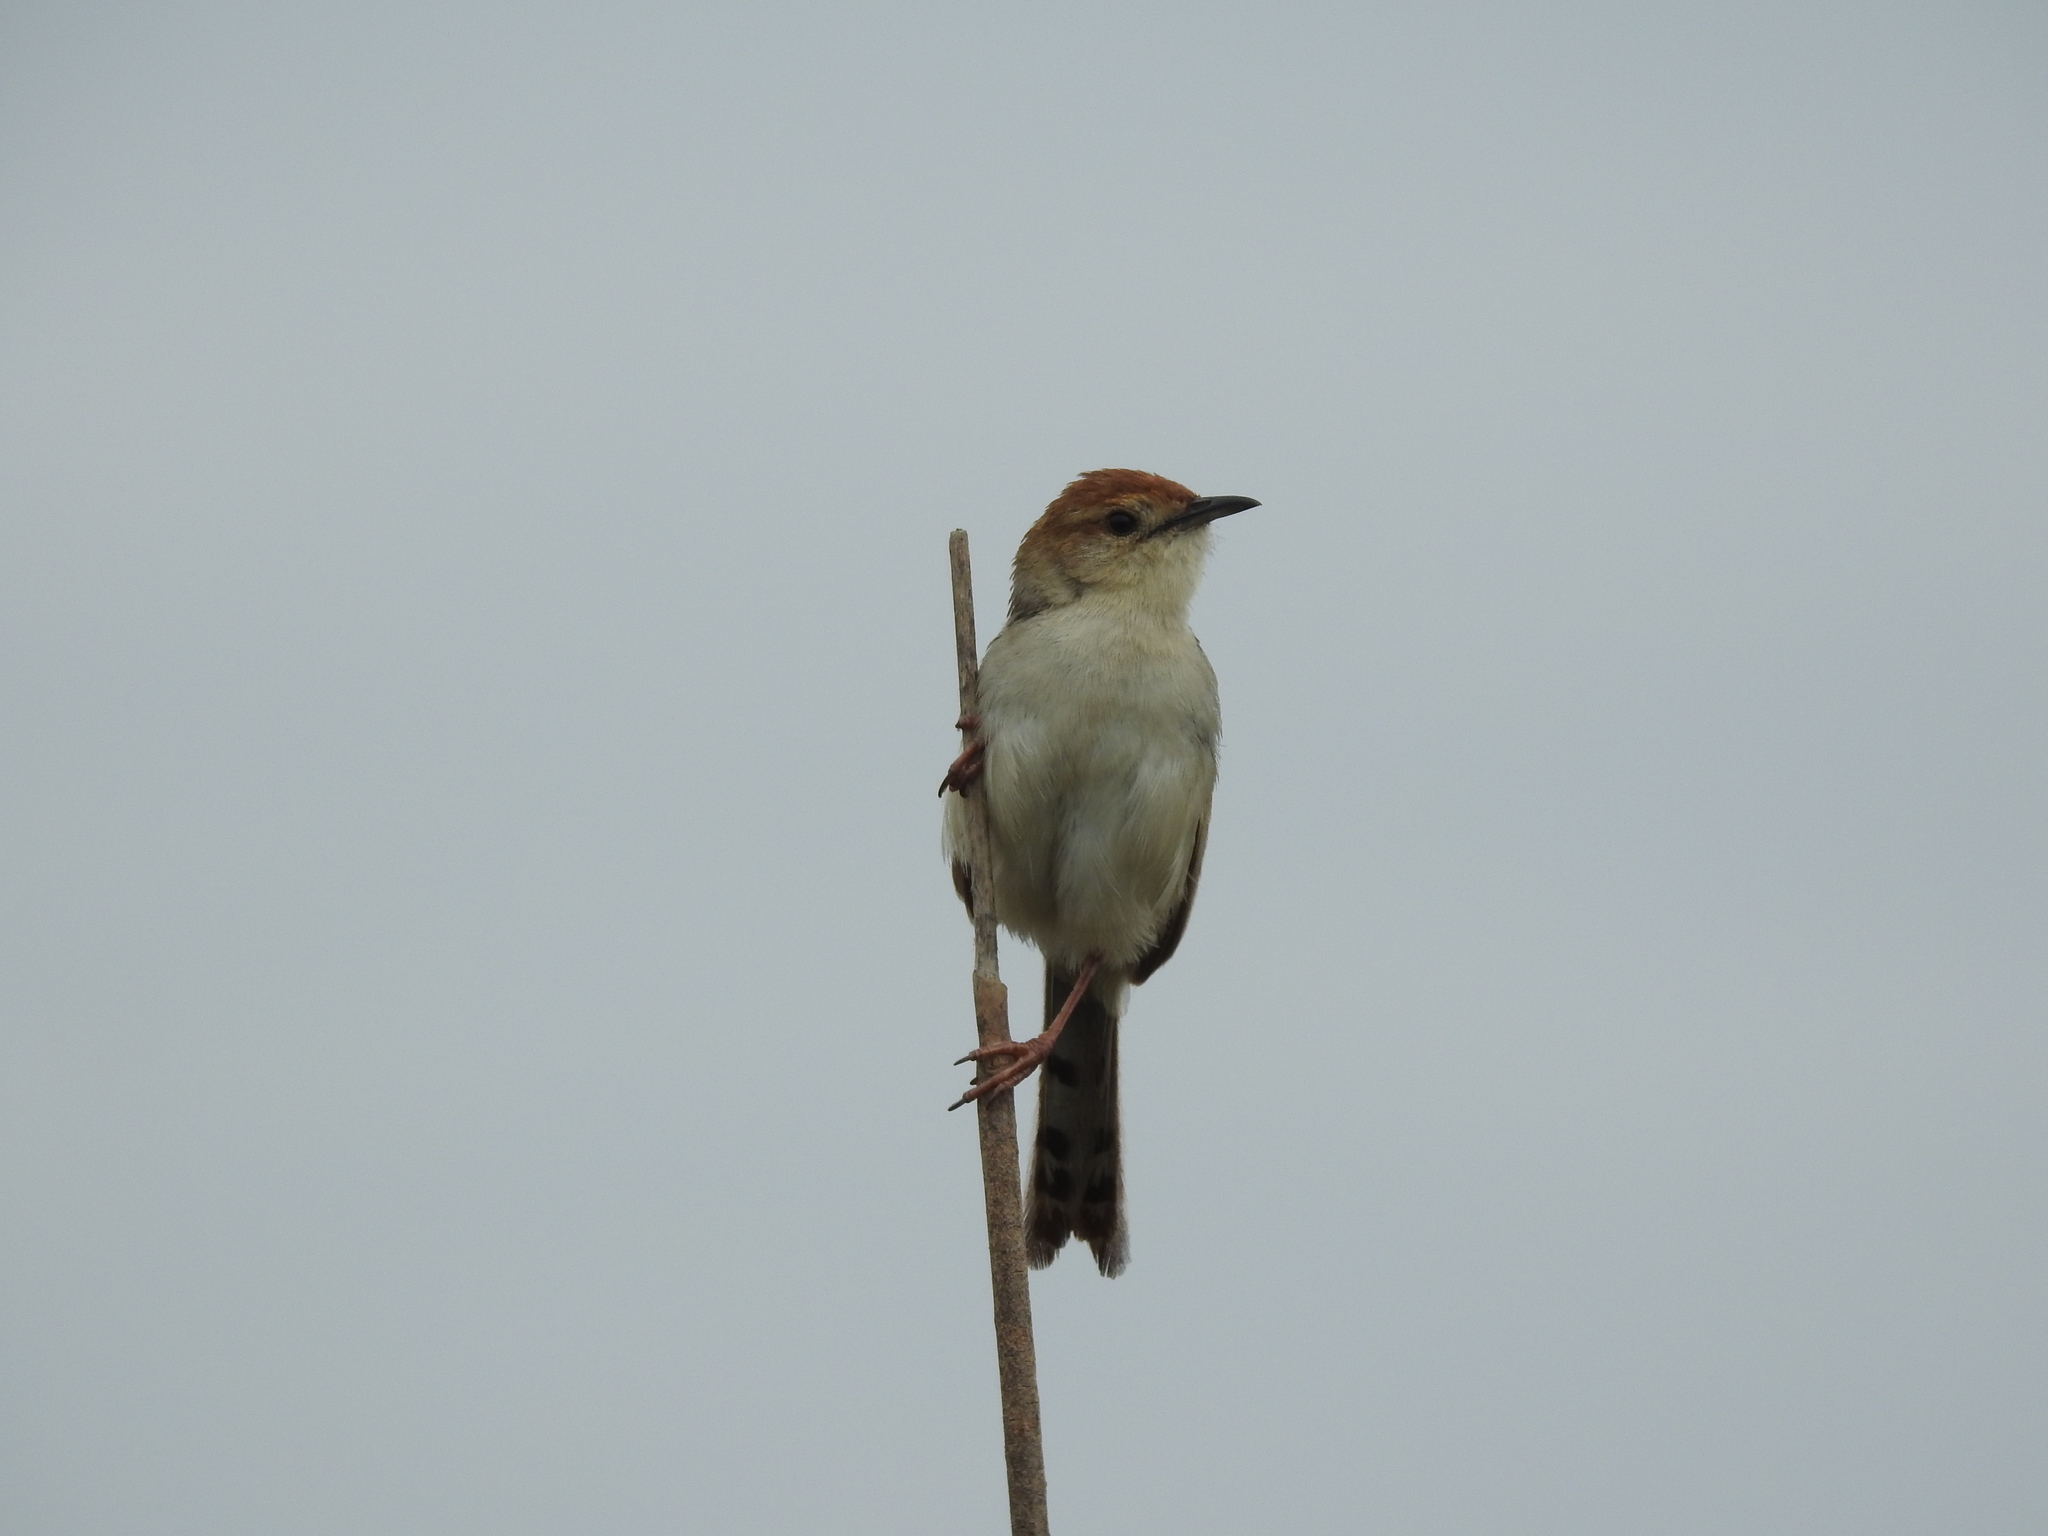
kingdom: Animalia
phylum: Chordata
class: Aves
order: Passeriformes
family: Cisticolidae
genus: Cisticola
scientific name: Cisticola tinniens
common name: Levaillant's cisticola
